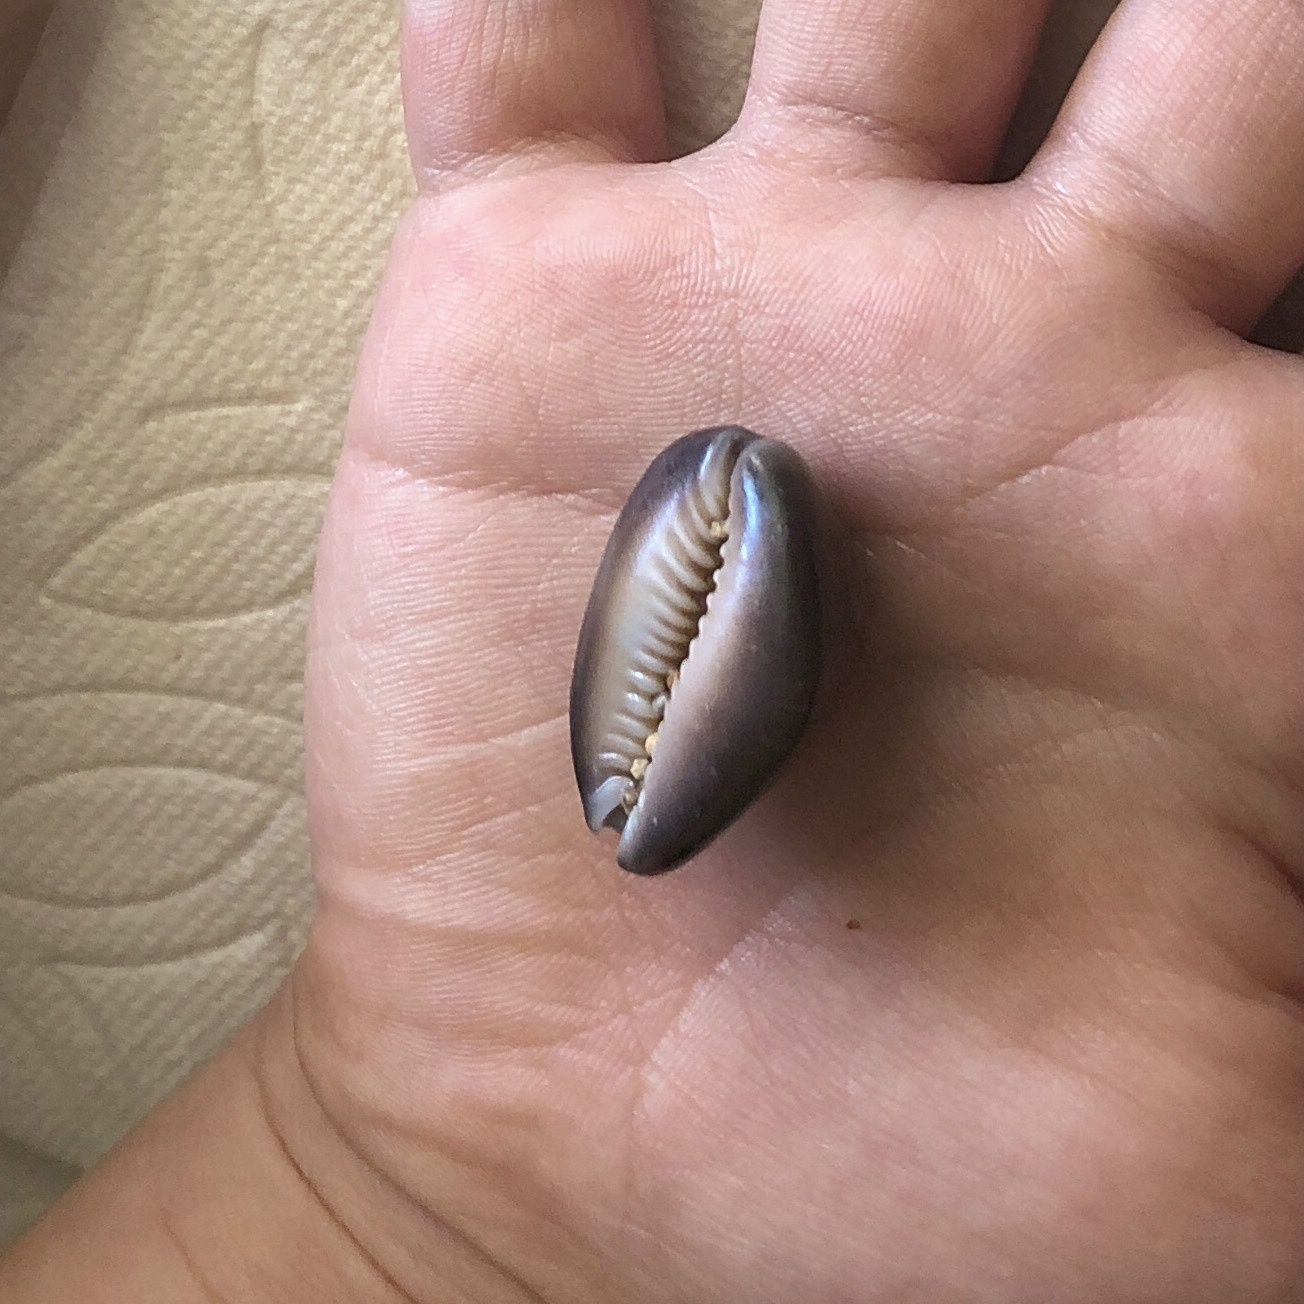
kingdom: Animalia
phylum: Mollusca
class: Gastropoda
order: Littorinimorpha
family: Cypraeidae
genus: Monetaria
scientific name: Monetaria caputserpentis
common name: Serpent's head cowrie
